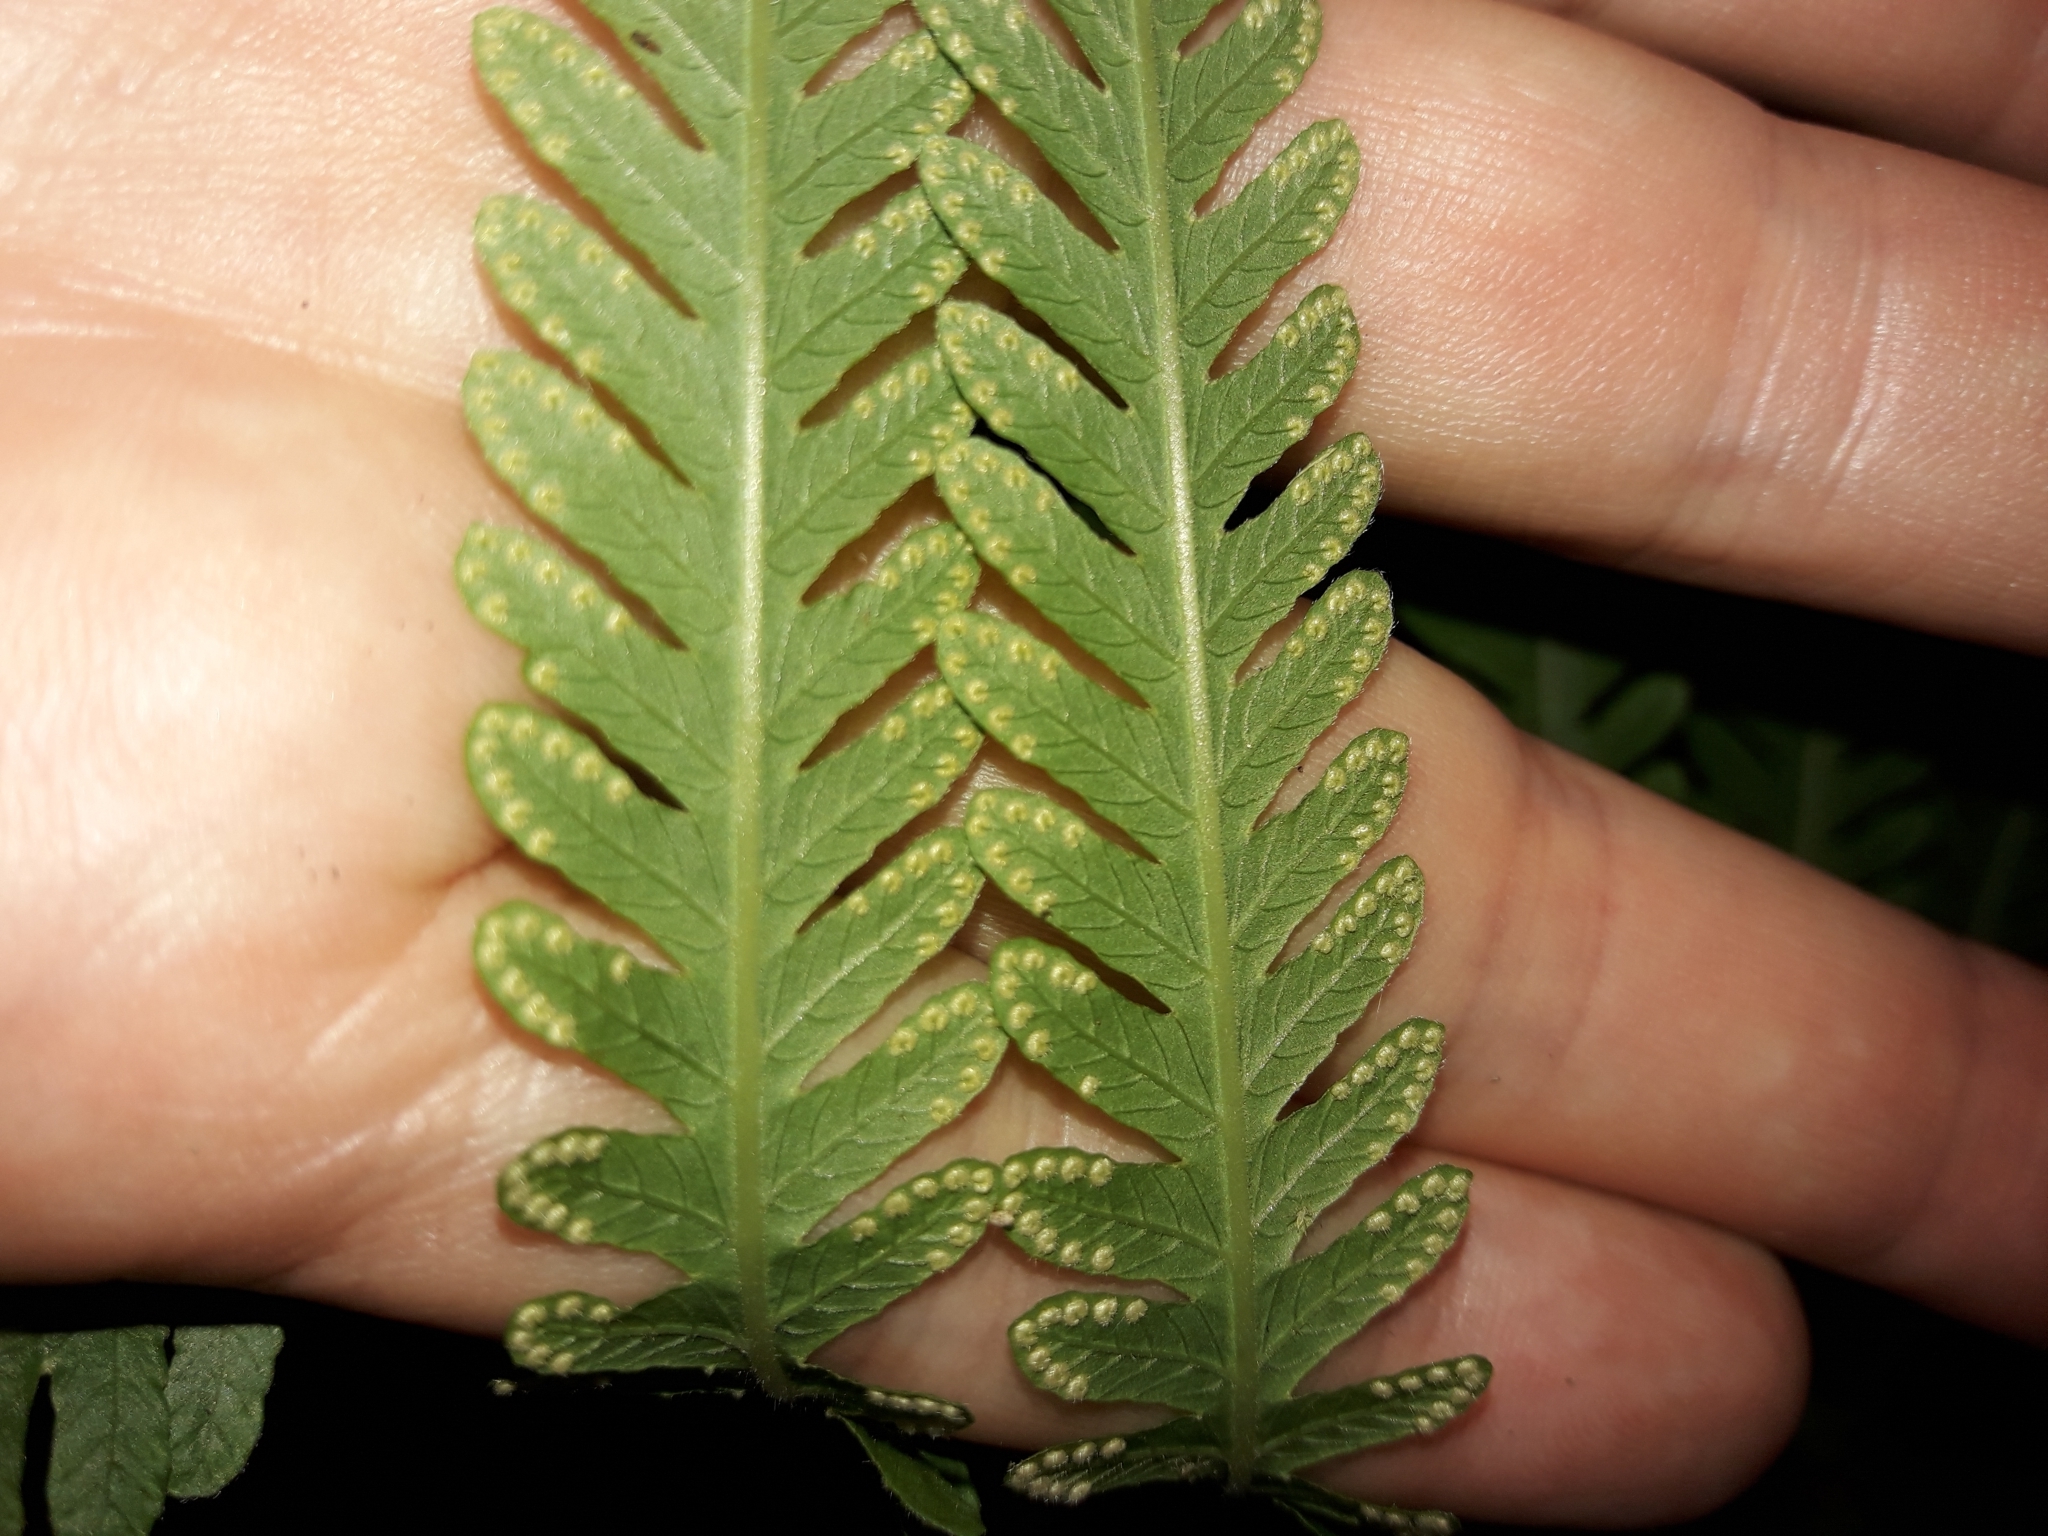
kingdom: Plantae
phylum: Tracheophyta
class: Polypodiopsida
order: Polypodiales
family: Thelypteridaceae
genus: Christella
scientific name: Christella prolixa
